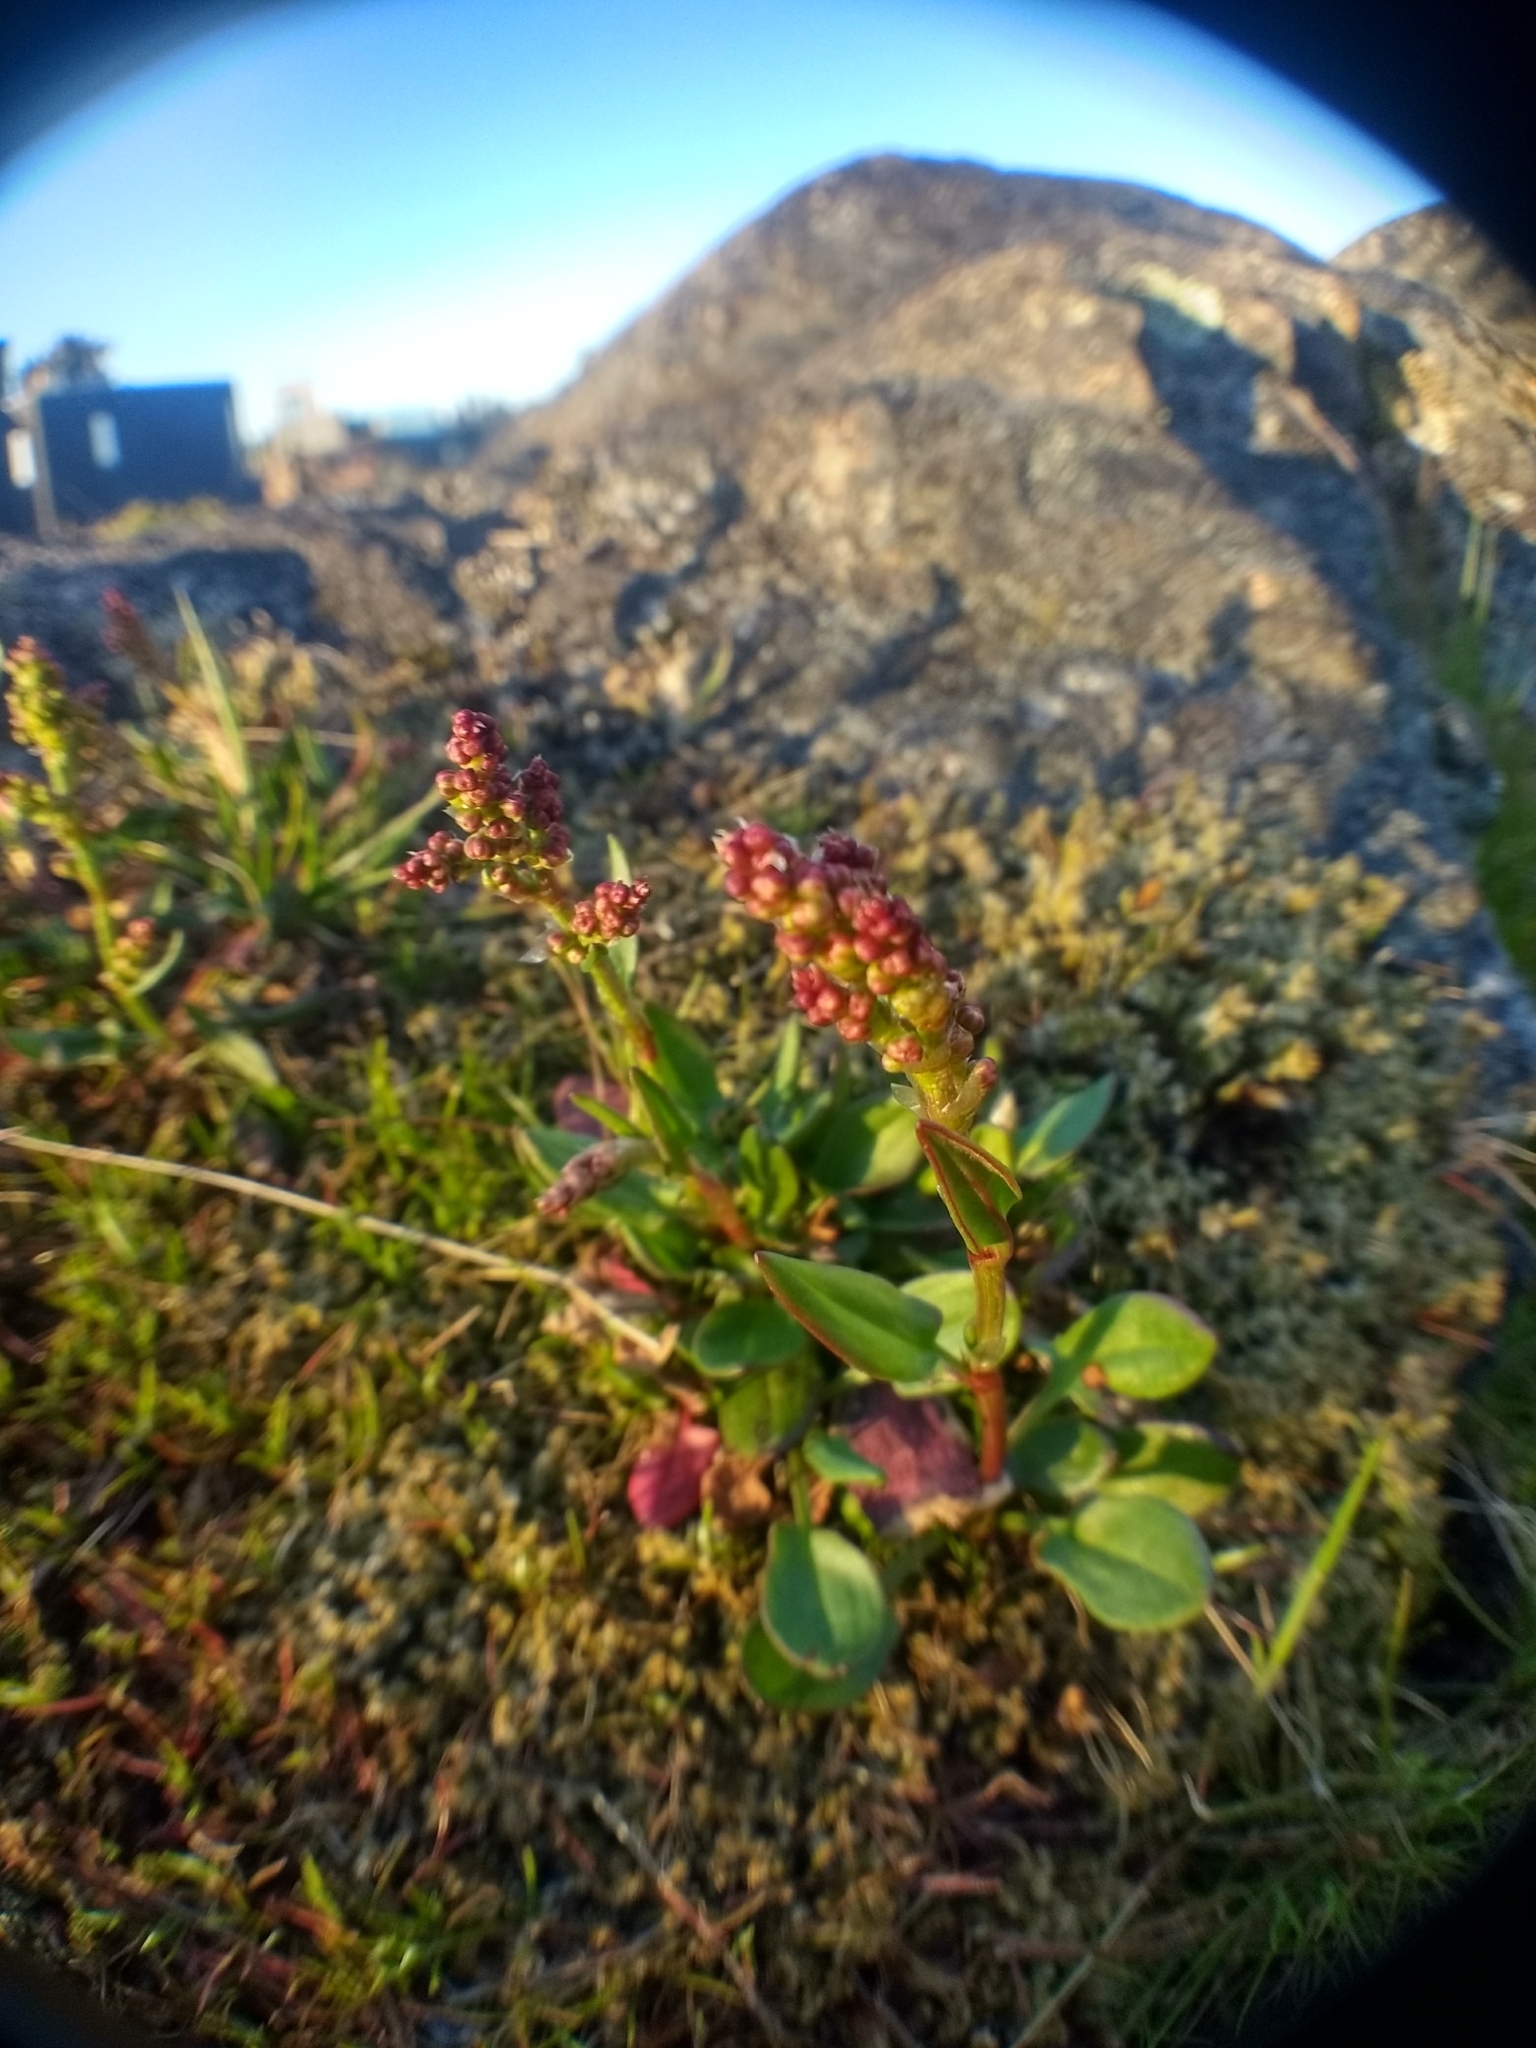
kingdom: Plantae
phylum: Tracheophyta
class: Magnoliopsida
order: Caryophyllales
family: Polygonaceae
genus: Rumex
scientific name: Rumex acetosella
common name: Common sheep sorrel
